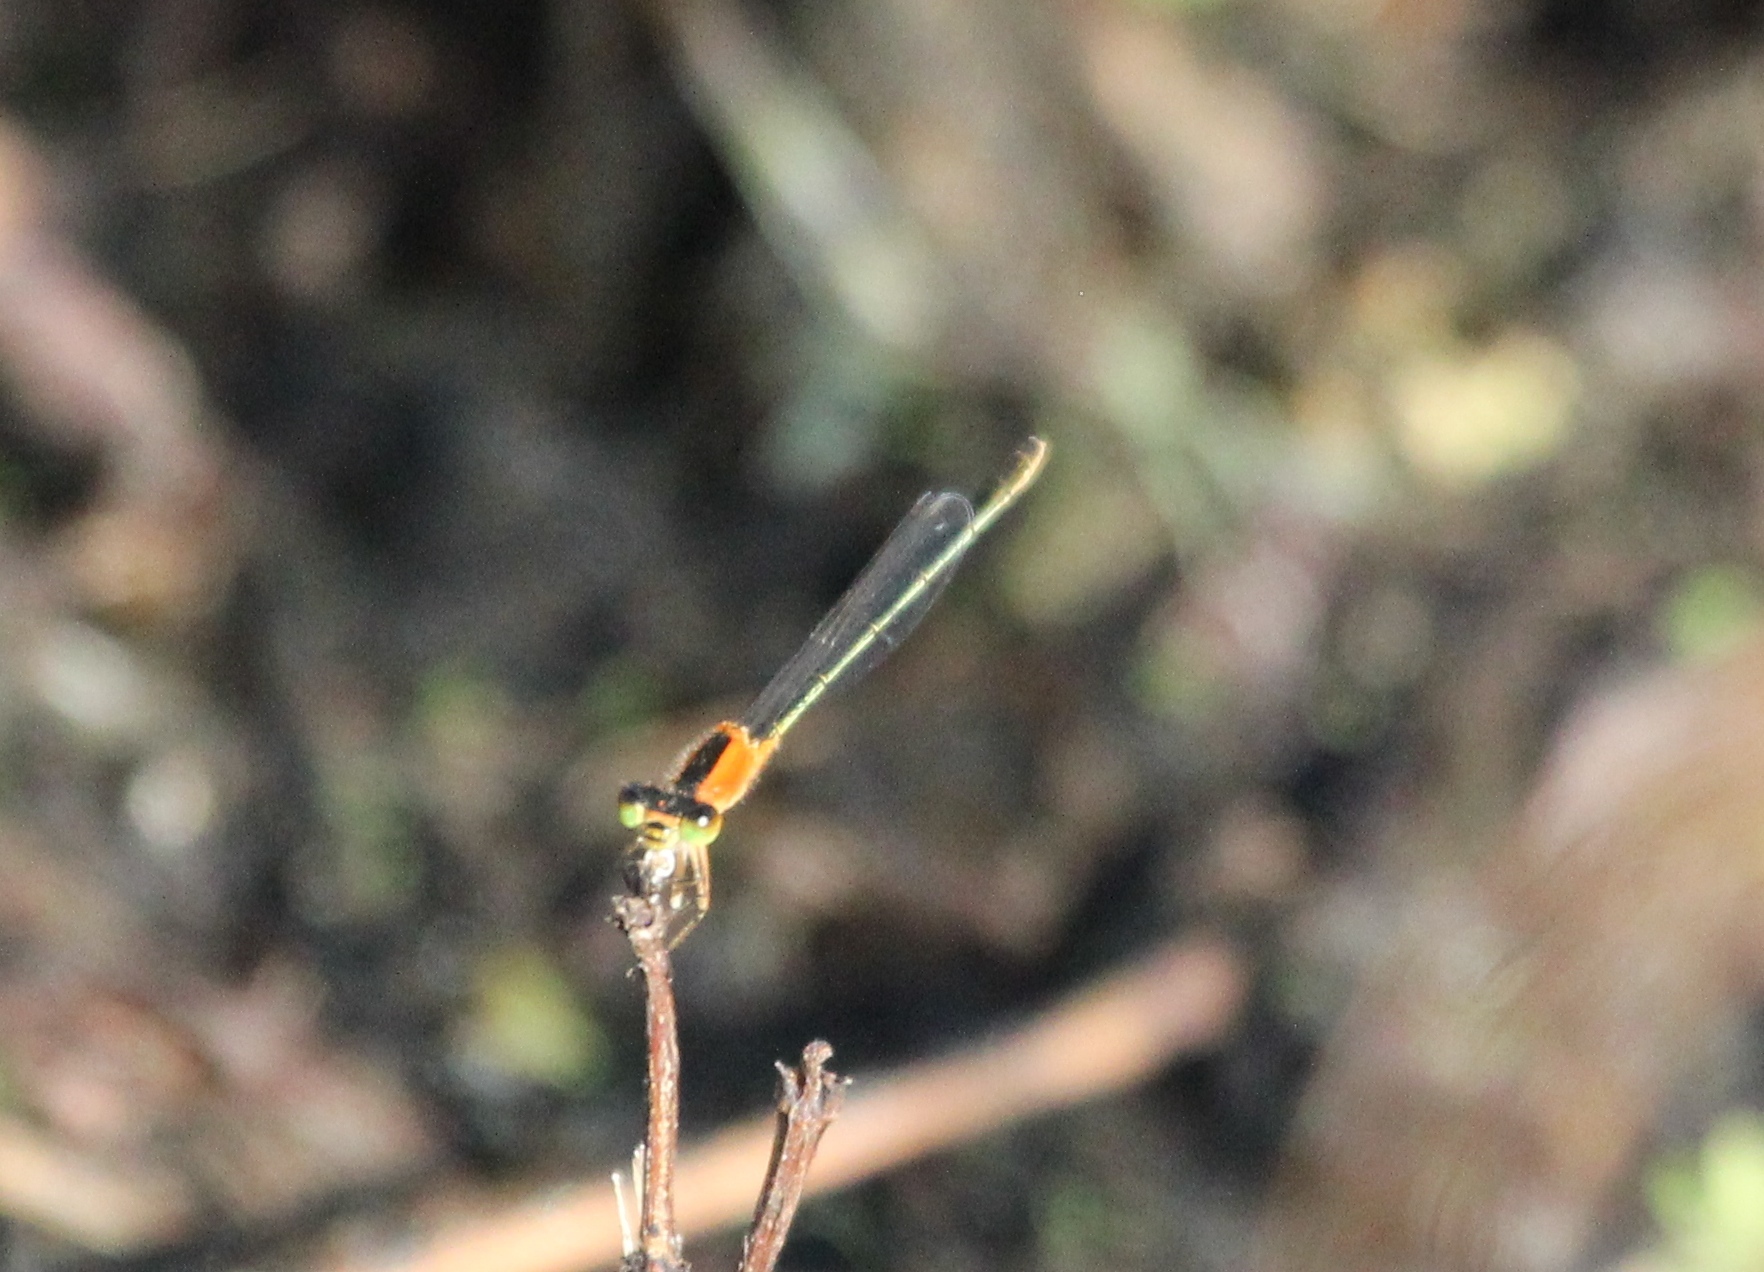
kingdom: Animalia
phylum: Arthropoda
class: Insecta
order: Odonata
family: Coenagrionidae
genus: Ischnura
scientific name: Ischnura ramburii
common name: Rambur's forktail
